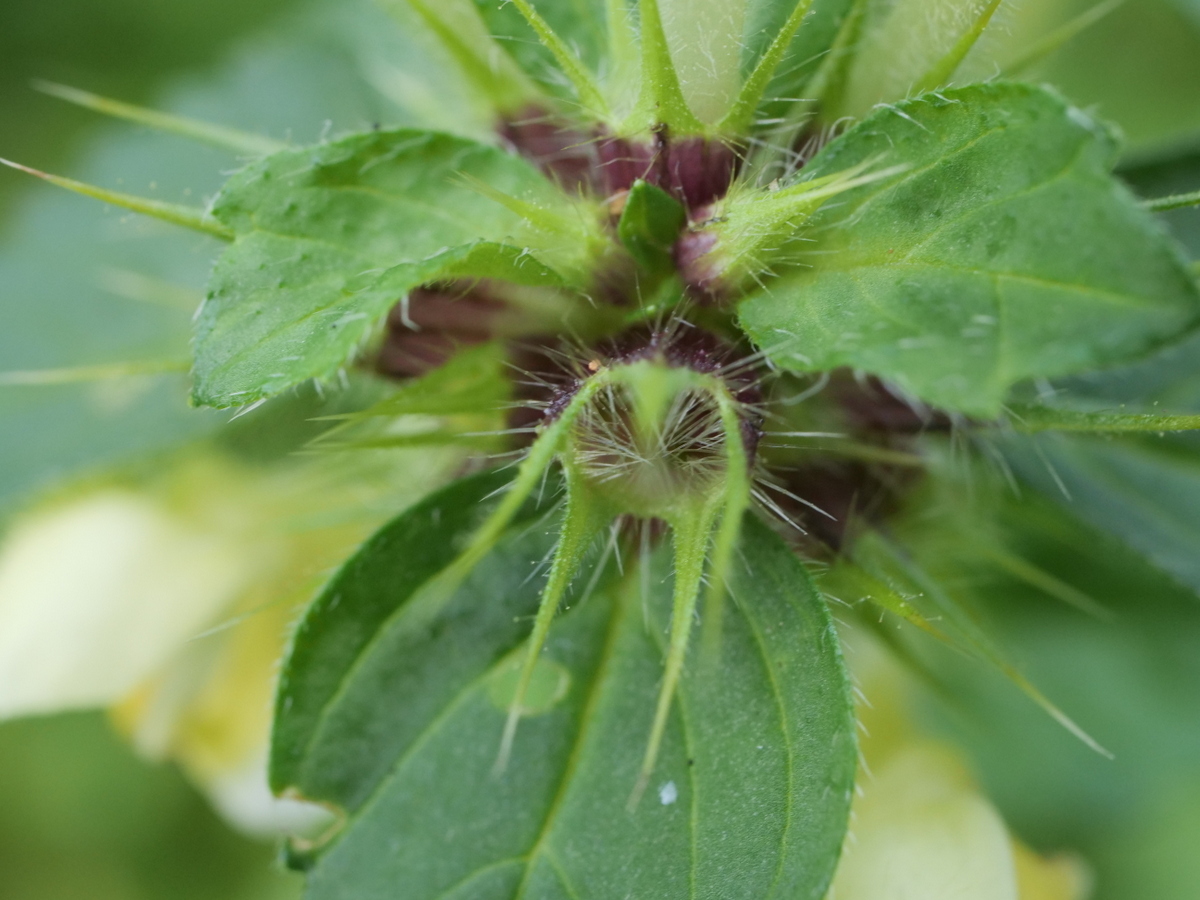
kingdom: Plantae
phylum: Tracheophyta
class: Magnoliopsida
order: Lamiales
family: Lamiaceae
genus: Galeopsis
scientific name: Galeopsis speciosa
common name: Large-flowered hemp-nettle
